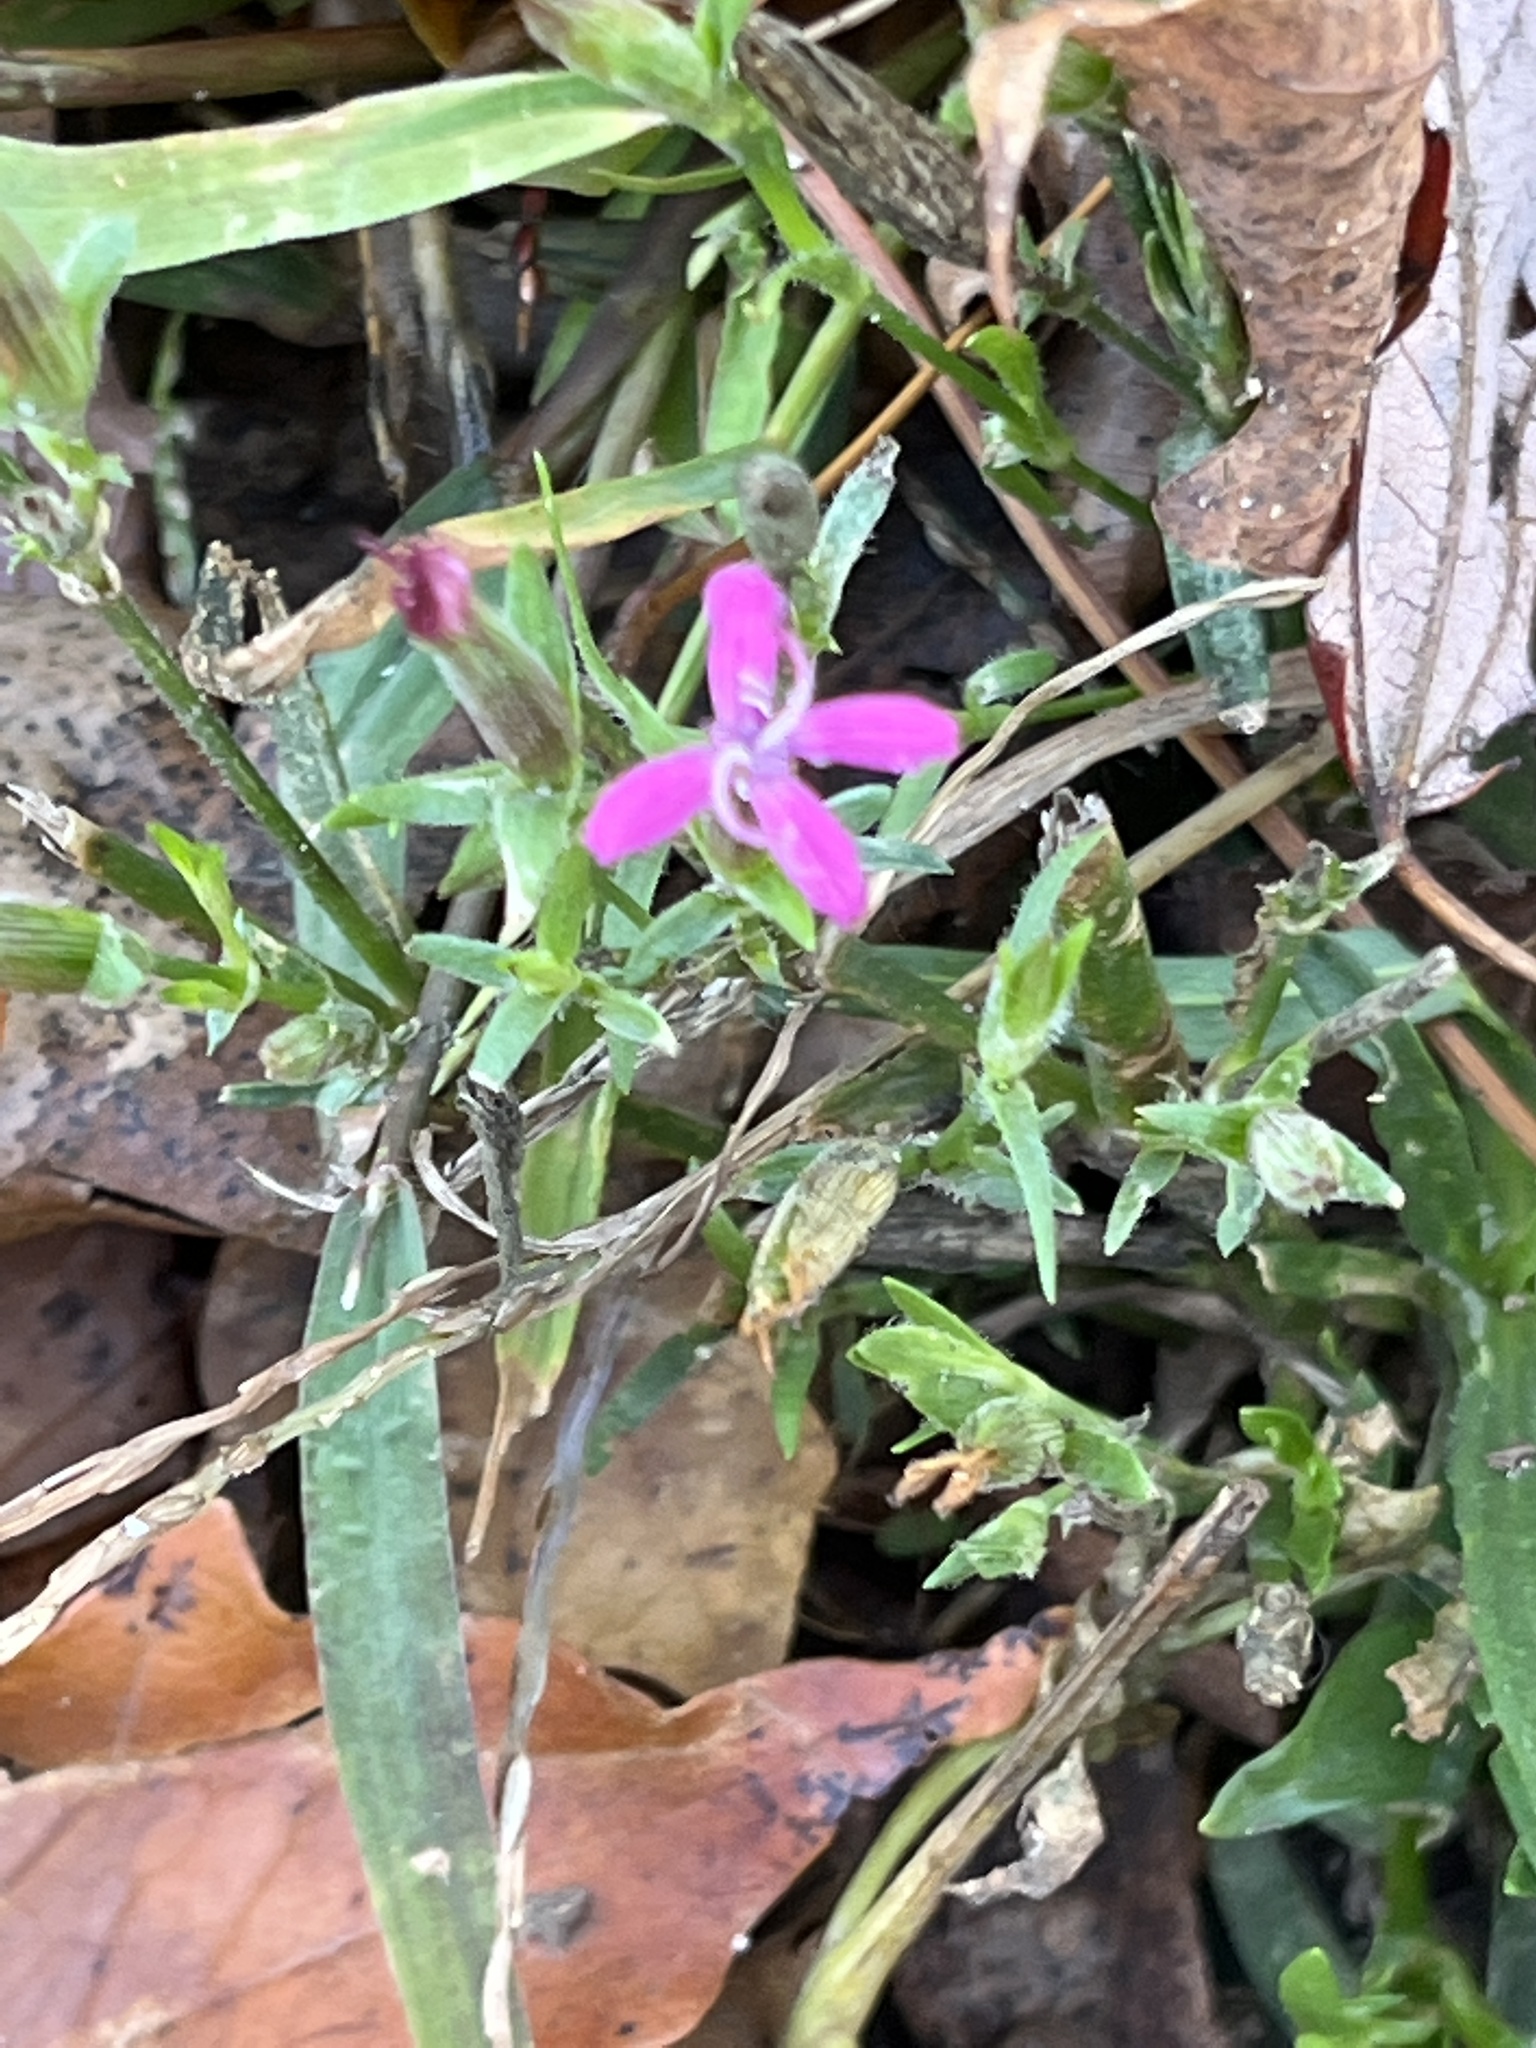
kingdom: Plantae
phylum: Tracheophyta
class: Magnoliopsida
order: Caryophyllales
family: Caryophyllaceae
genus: Dianthus
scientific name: Dianthus armeria
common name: Deptford pink
